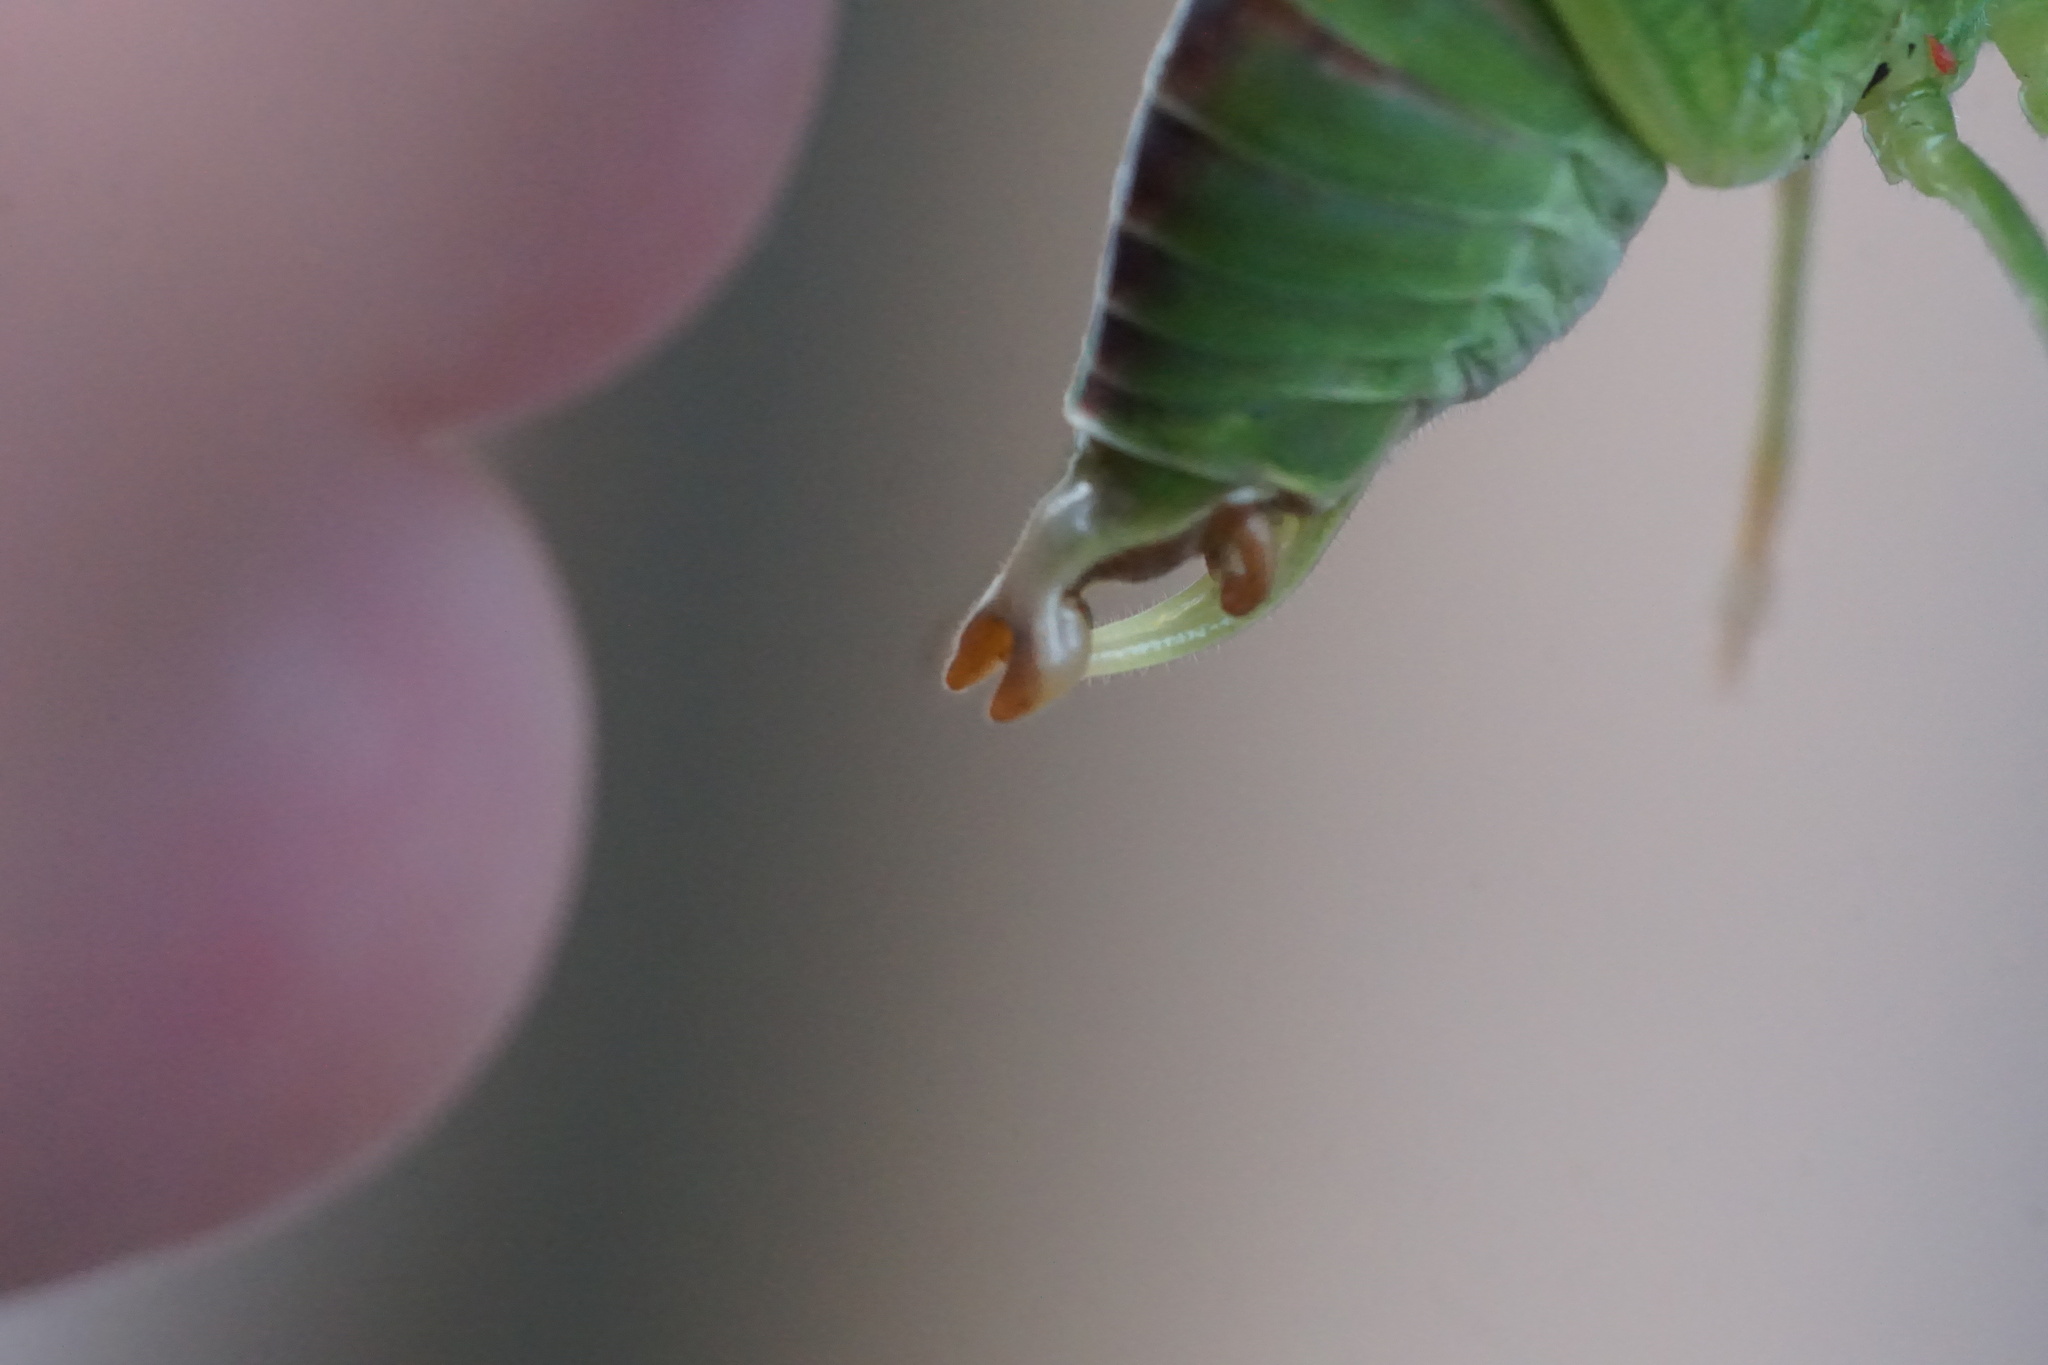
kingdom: Animalia
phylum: Arthropoda
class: Insecta
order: Orthoptera
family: Tettigoniidae
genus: Scudderia
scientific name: Scudderia furcata
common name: Fork-tailed bush katydid
